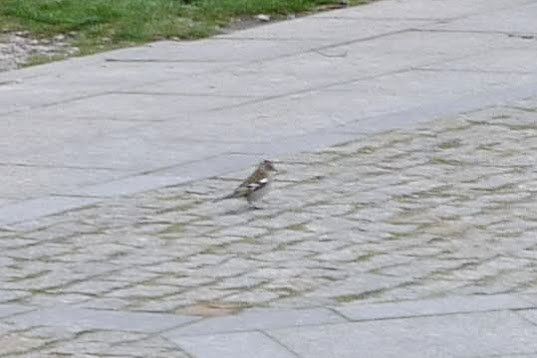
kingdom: Animalia
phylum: Chordata
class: Aves
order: Passeriformes
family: Fringillidae
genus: Fringilla
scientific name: Fringilla coelebs
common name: Common chaffinch
